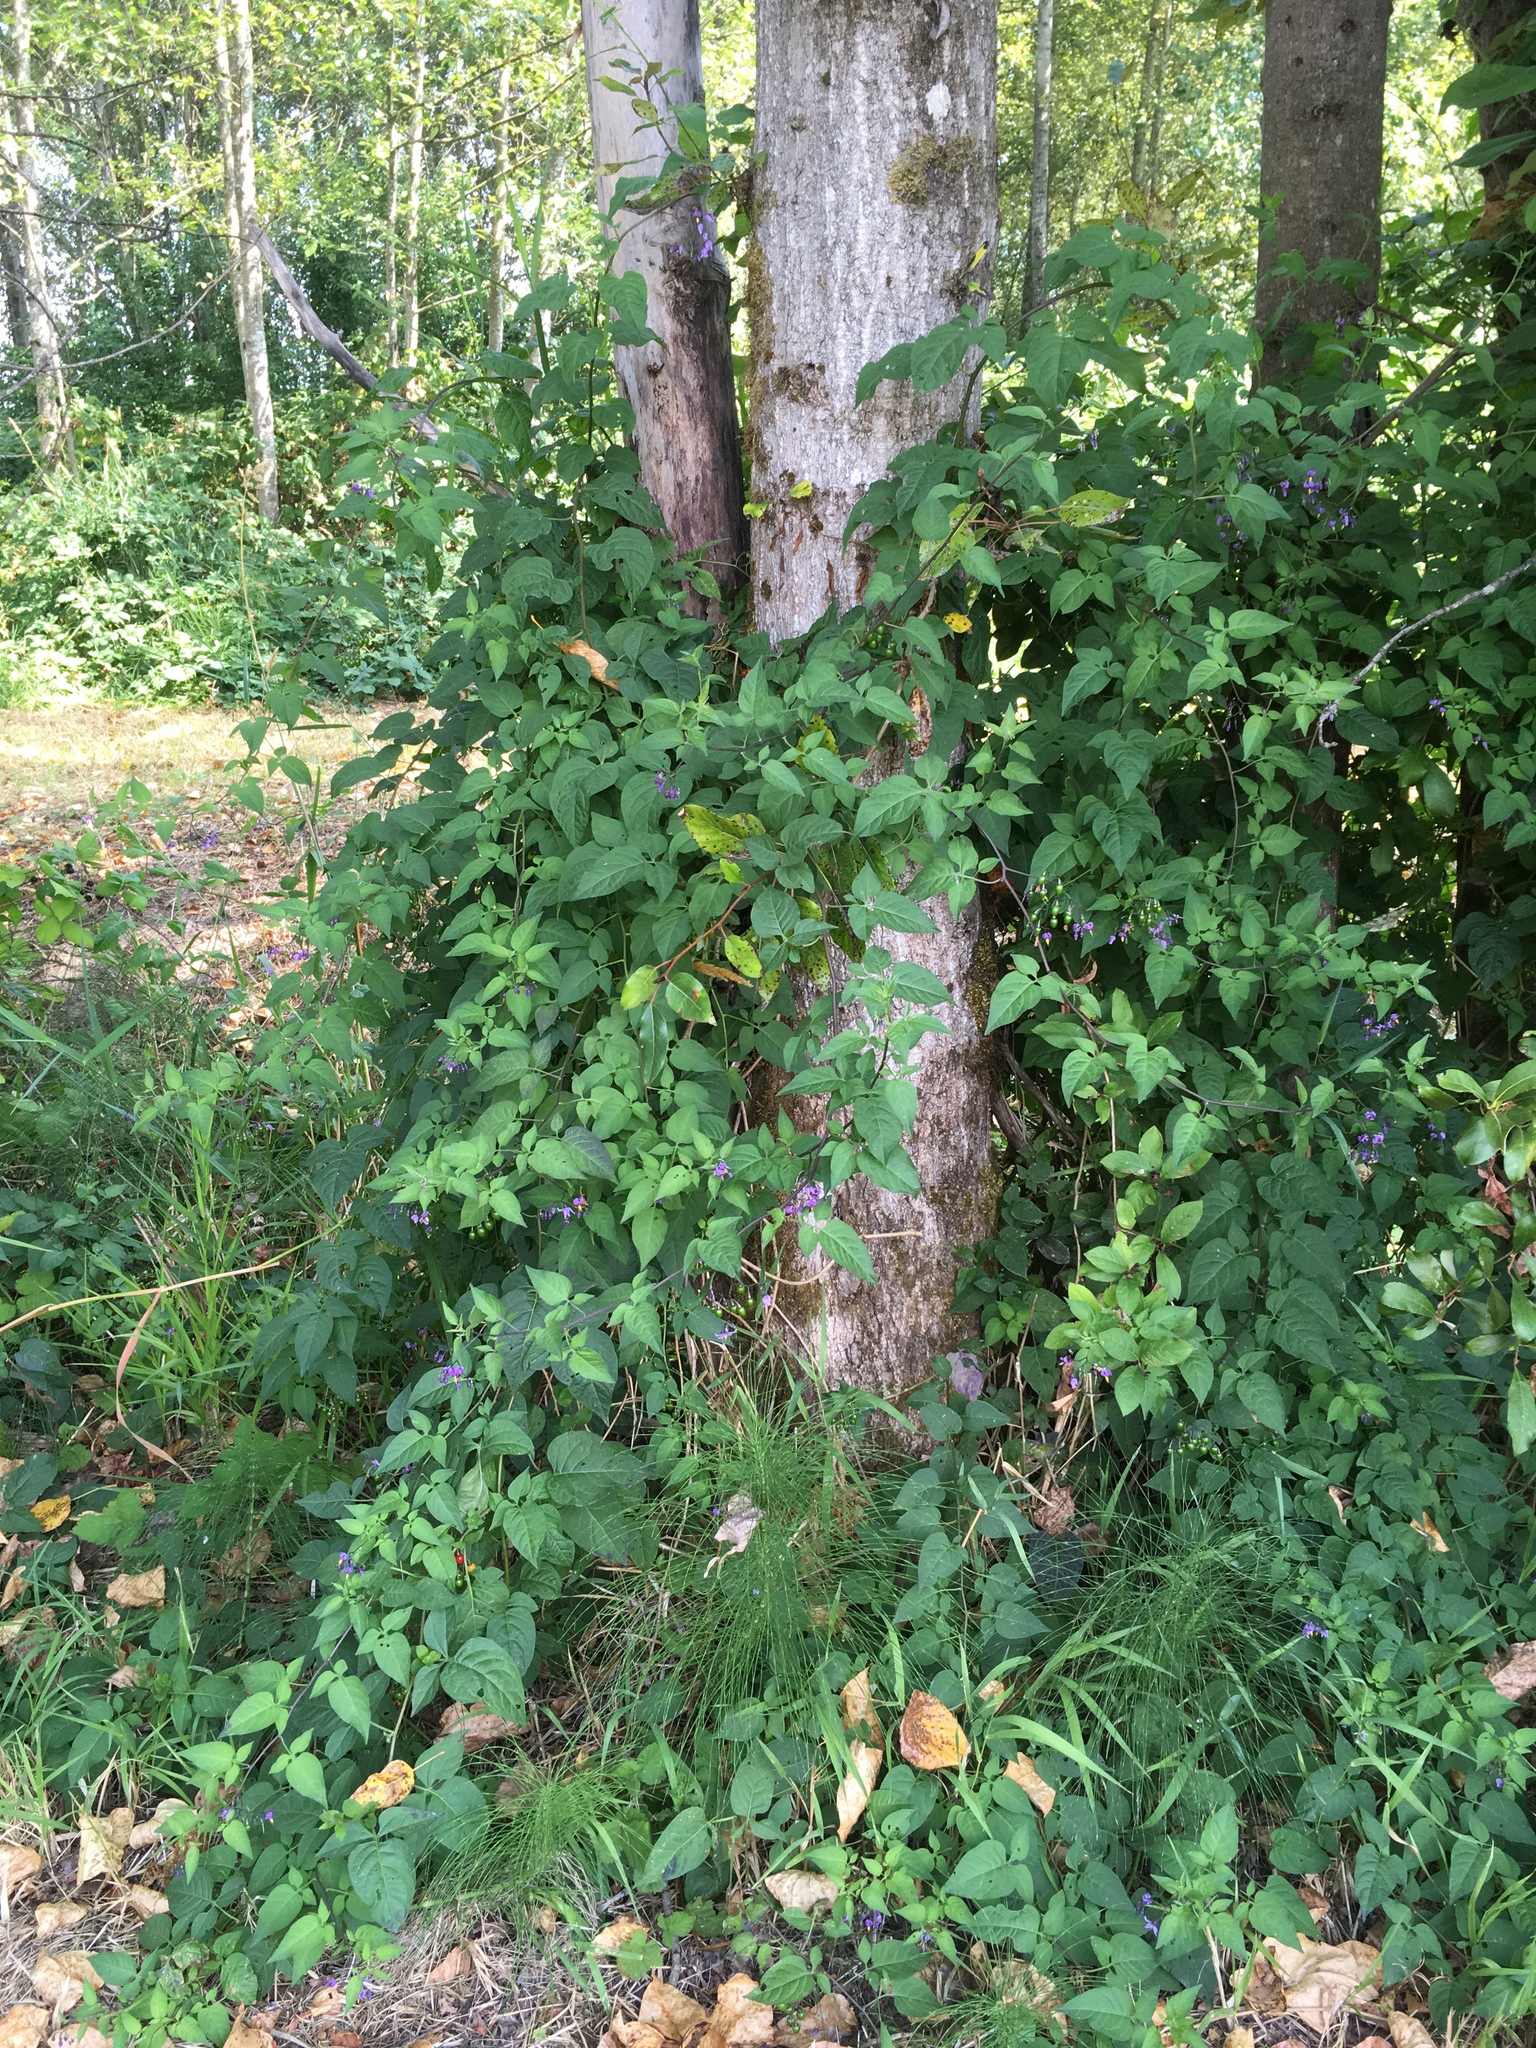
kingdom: Plantae
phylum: Tracheophyta
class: Magnoliopsida
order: Solanales
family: Solanaceae
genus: Solanum
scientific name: Solanum dulcamara
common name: Climbing nightshade
